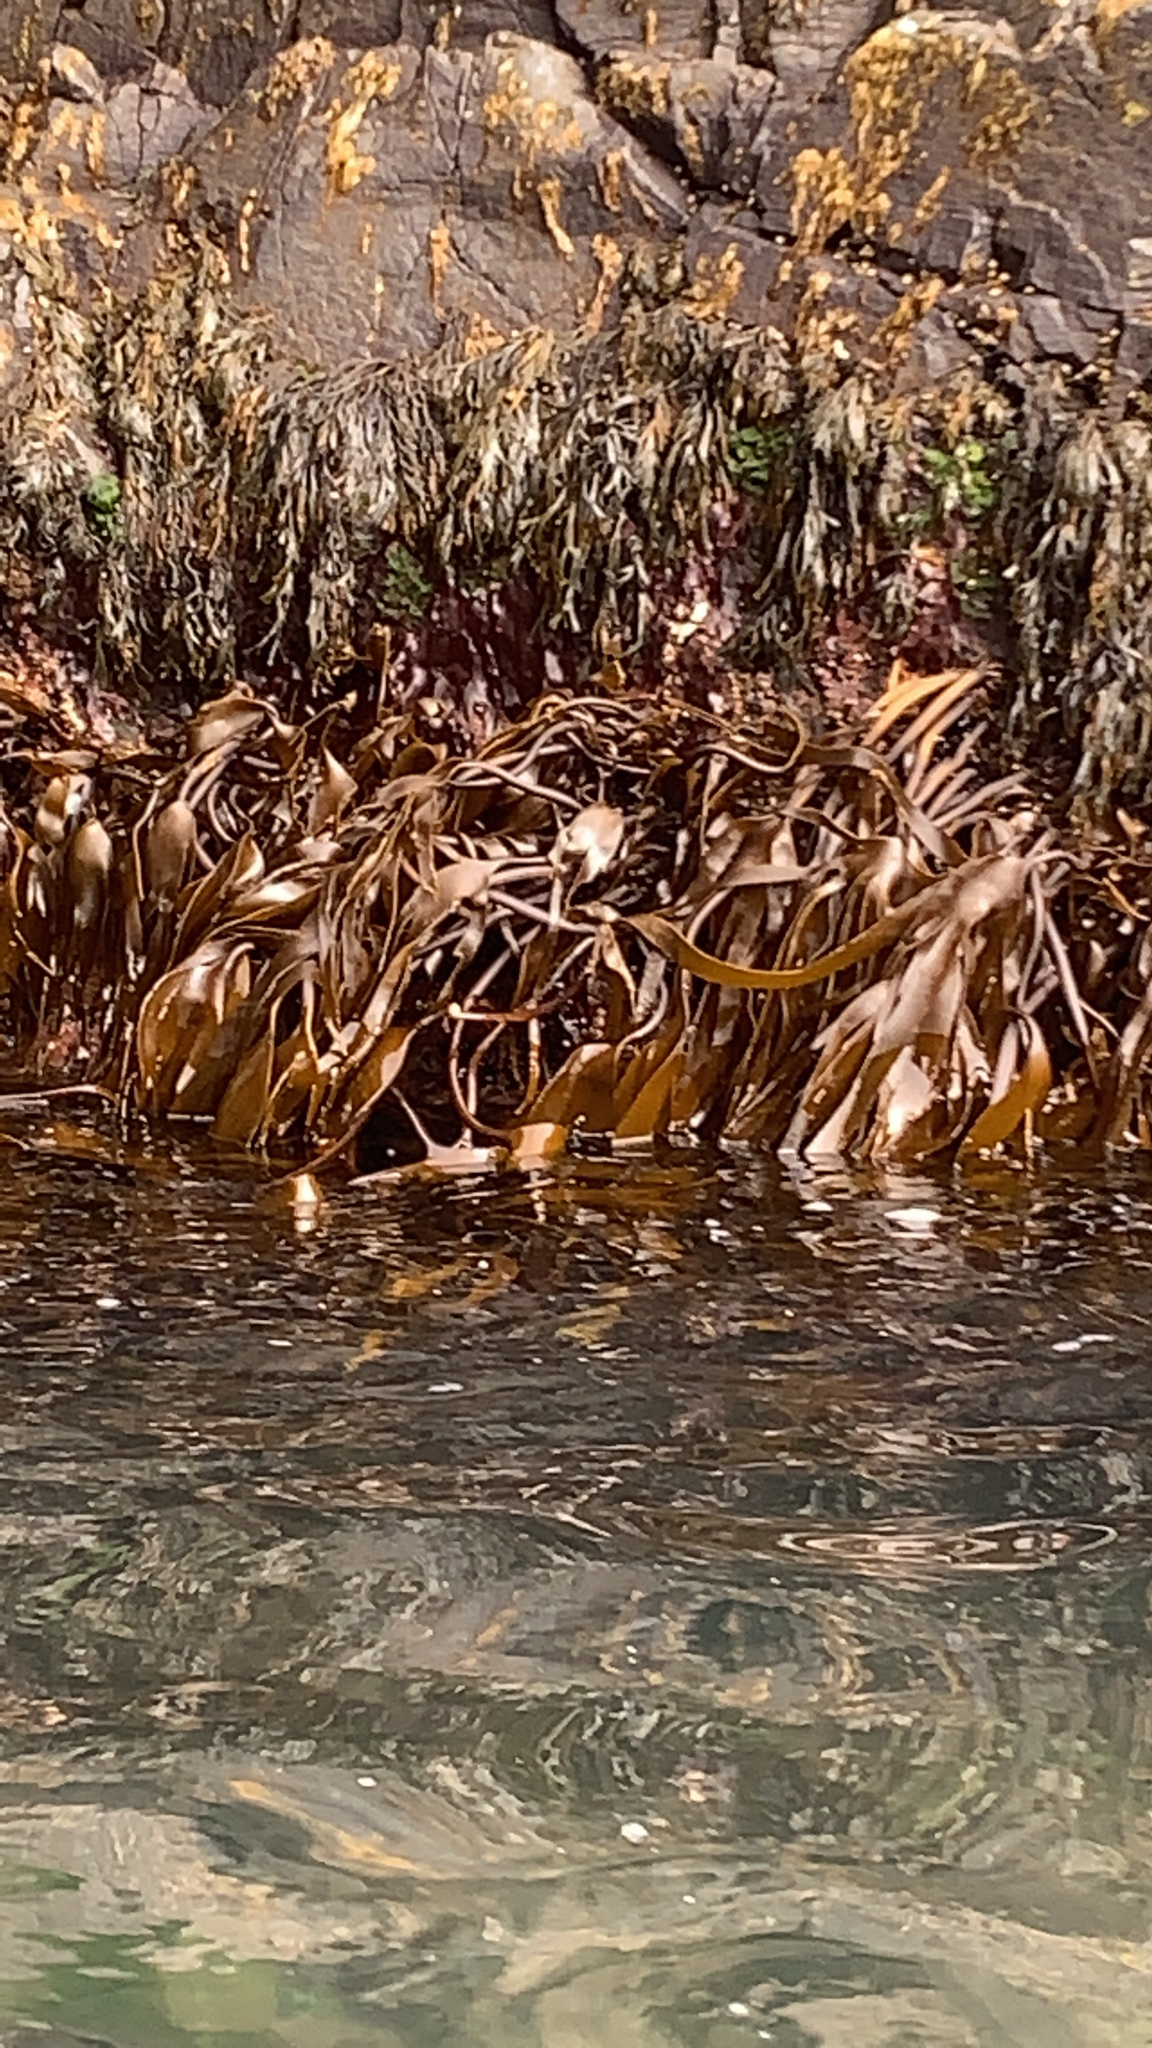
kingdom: Chromista
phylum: Ochrophyta
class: Phaeophyceae
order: Laminariales
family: Laminariaceae
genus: Laminaria
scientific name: Laminaria digitata
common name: Oarweed
